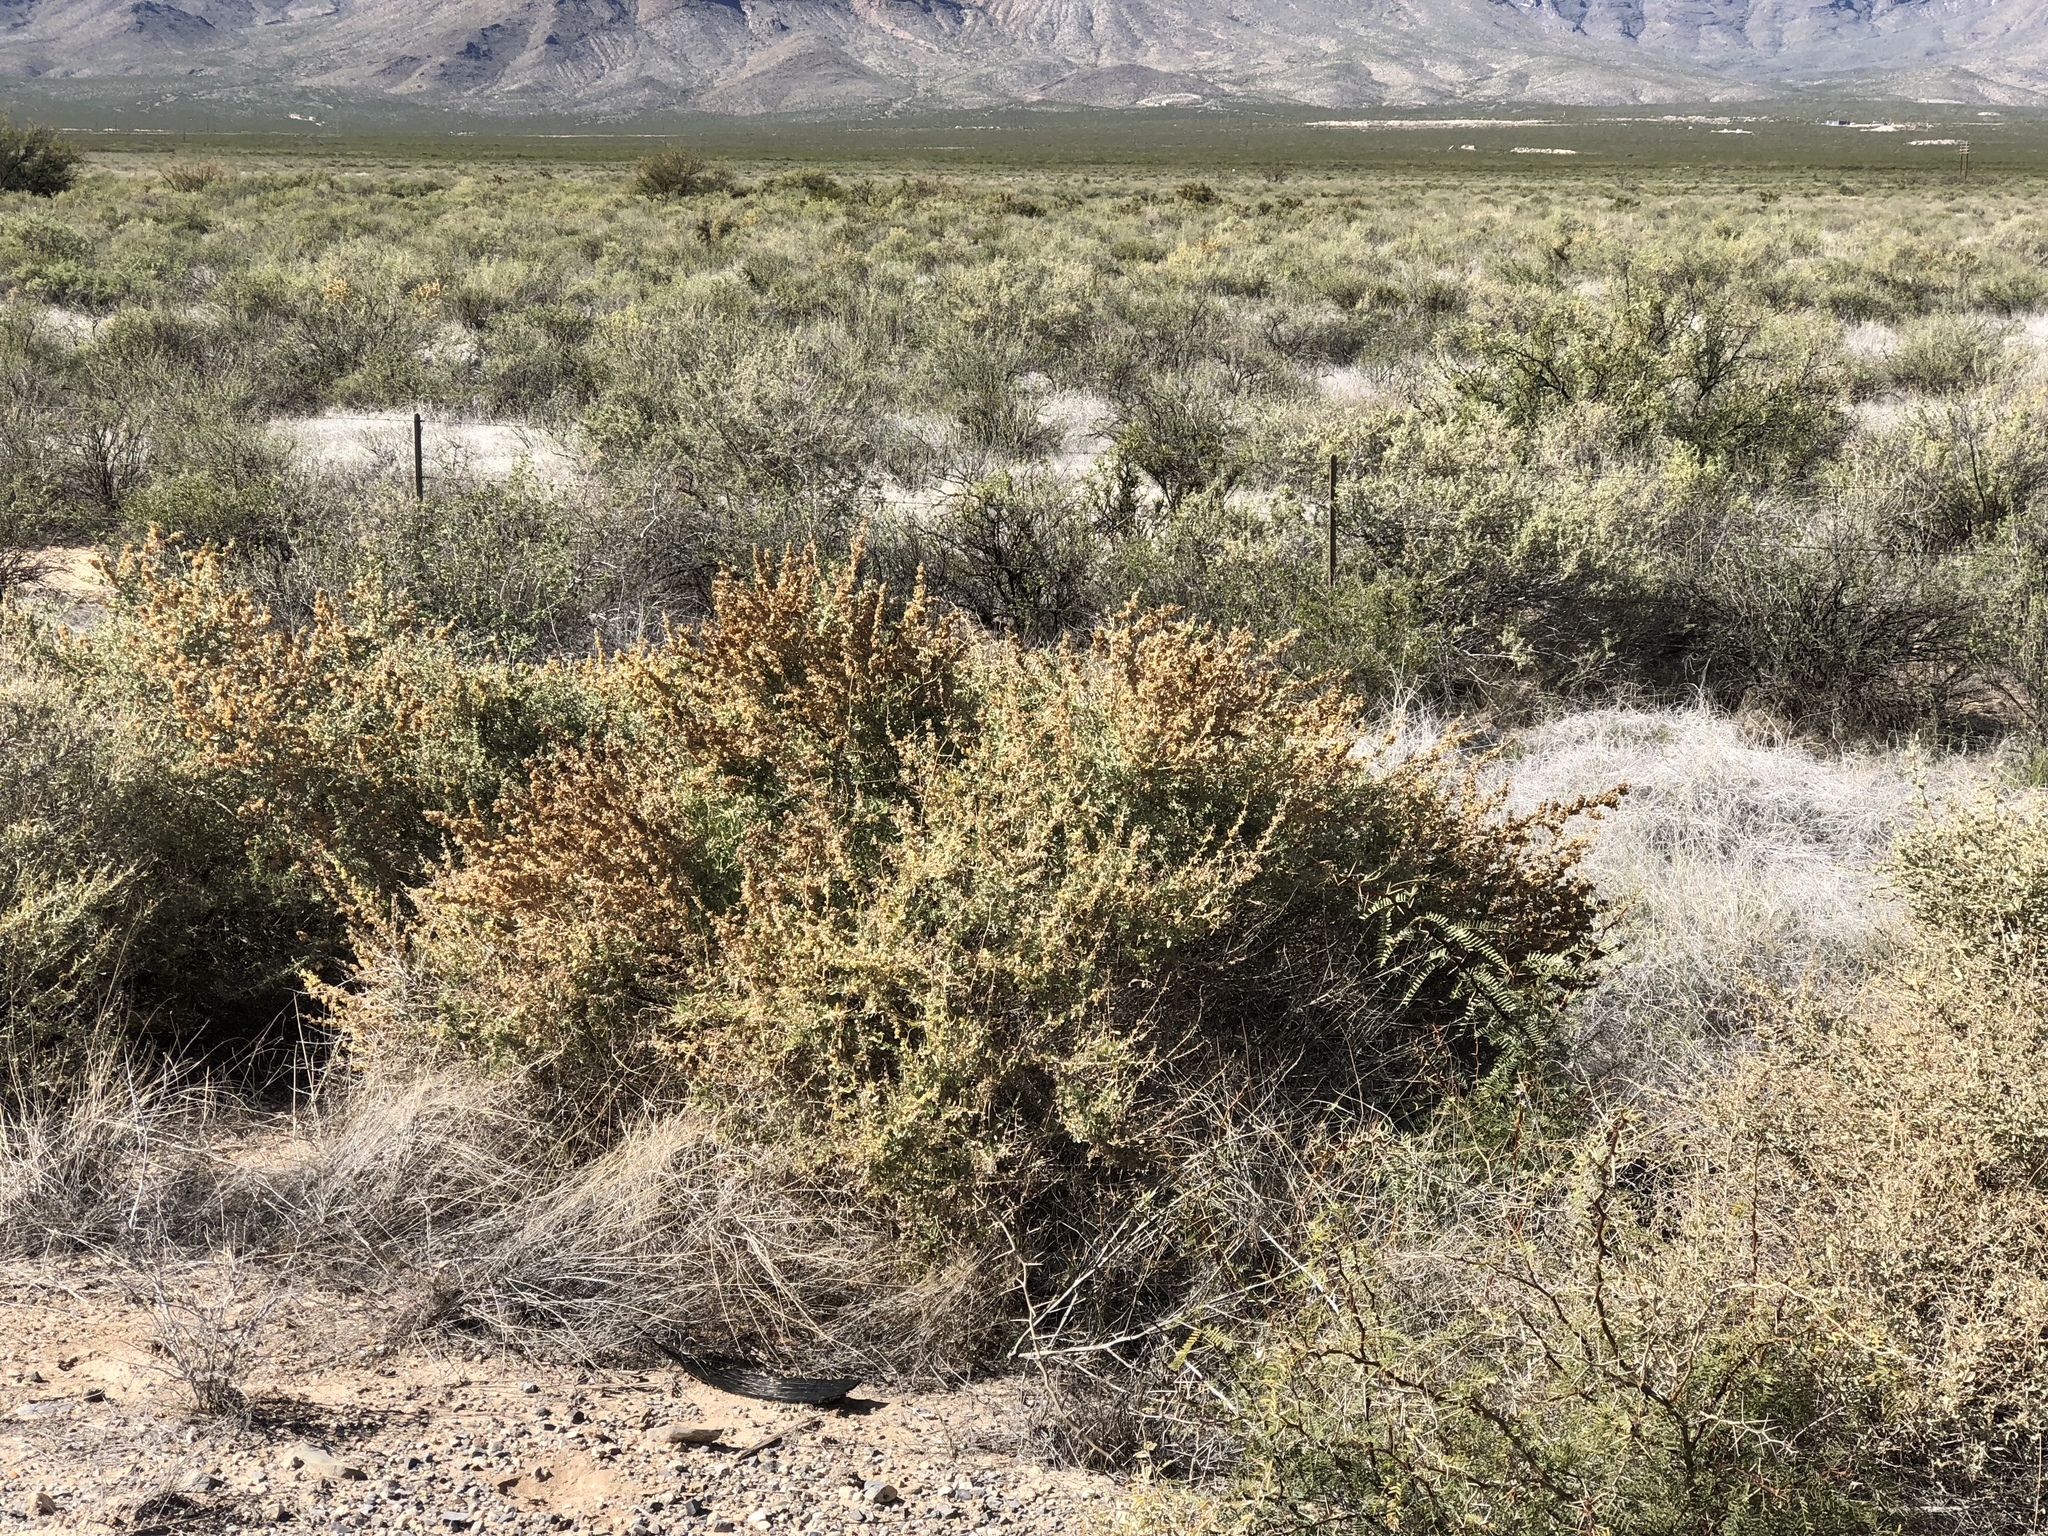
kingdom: Plantae
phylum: Tracheophyta
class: Magnoliopsida
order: Caryophyllales
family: Amaranthaceae
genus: Atriplex
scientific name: Atriplex canescens
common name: Four-wing saltbush
